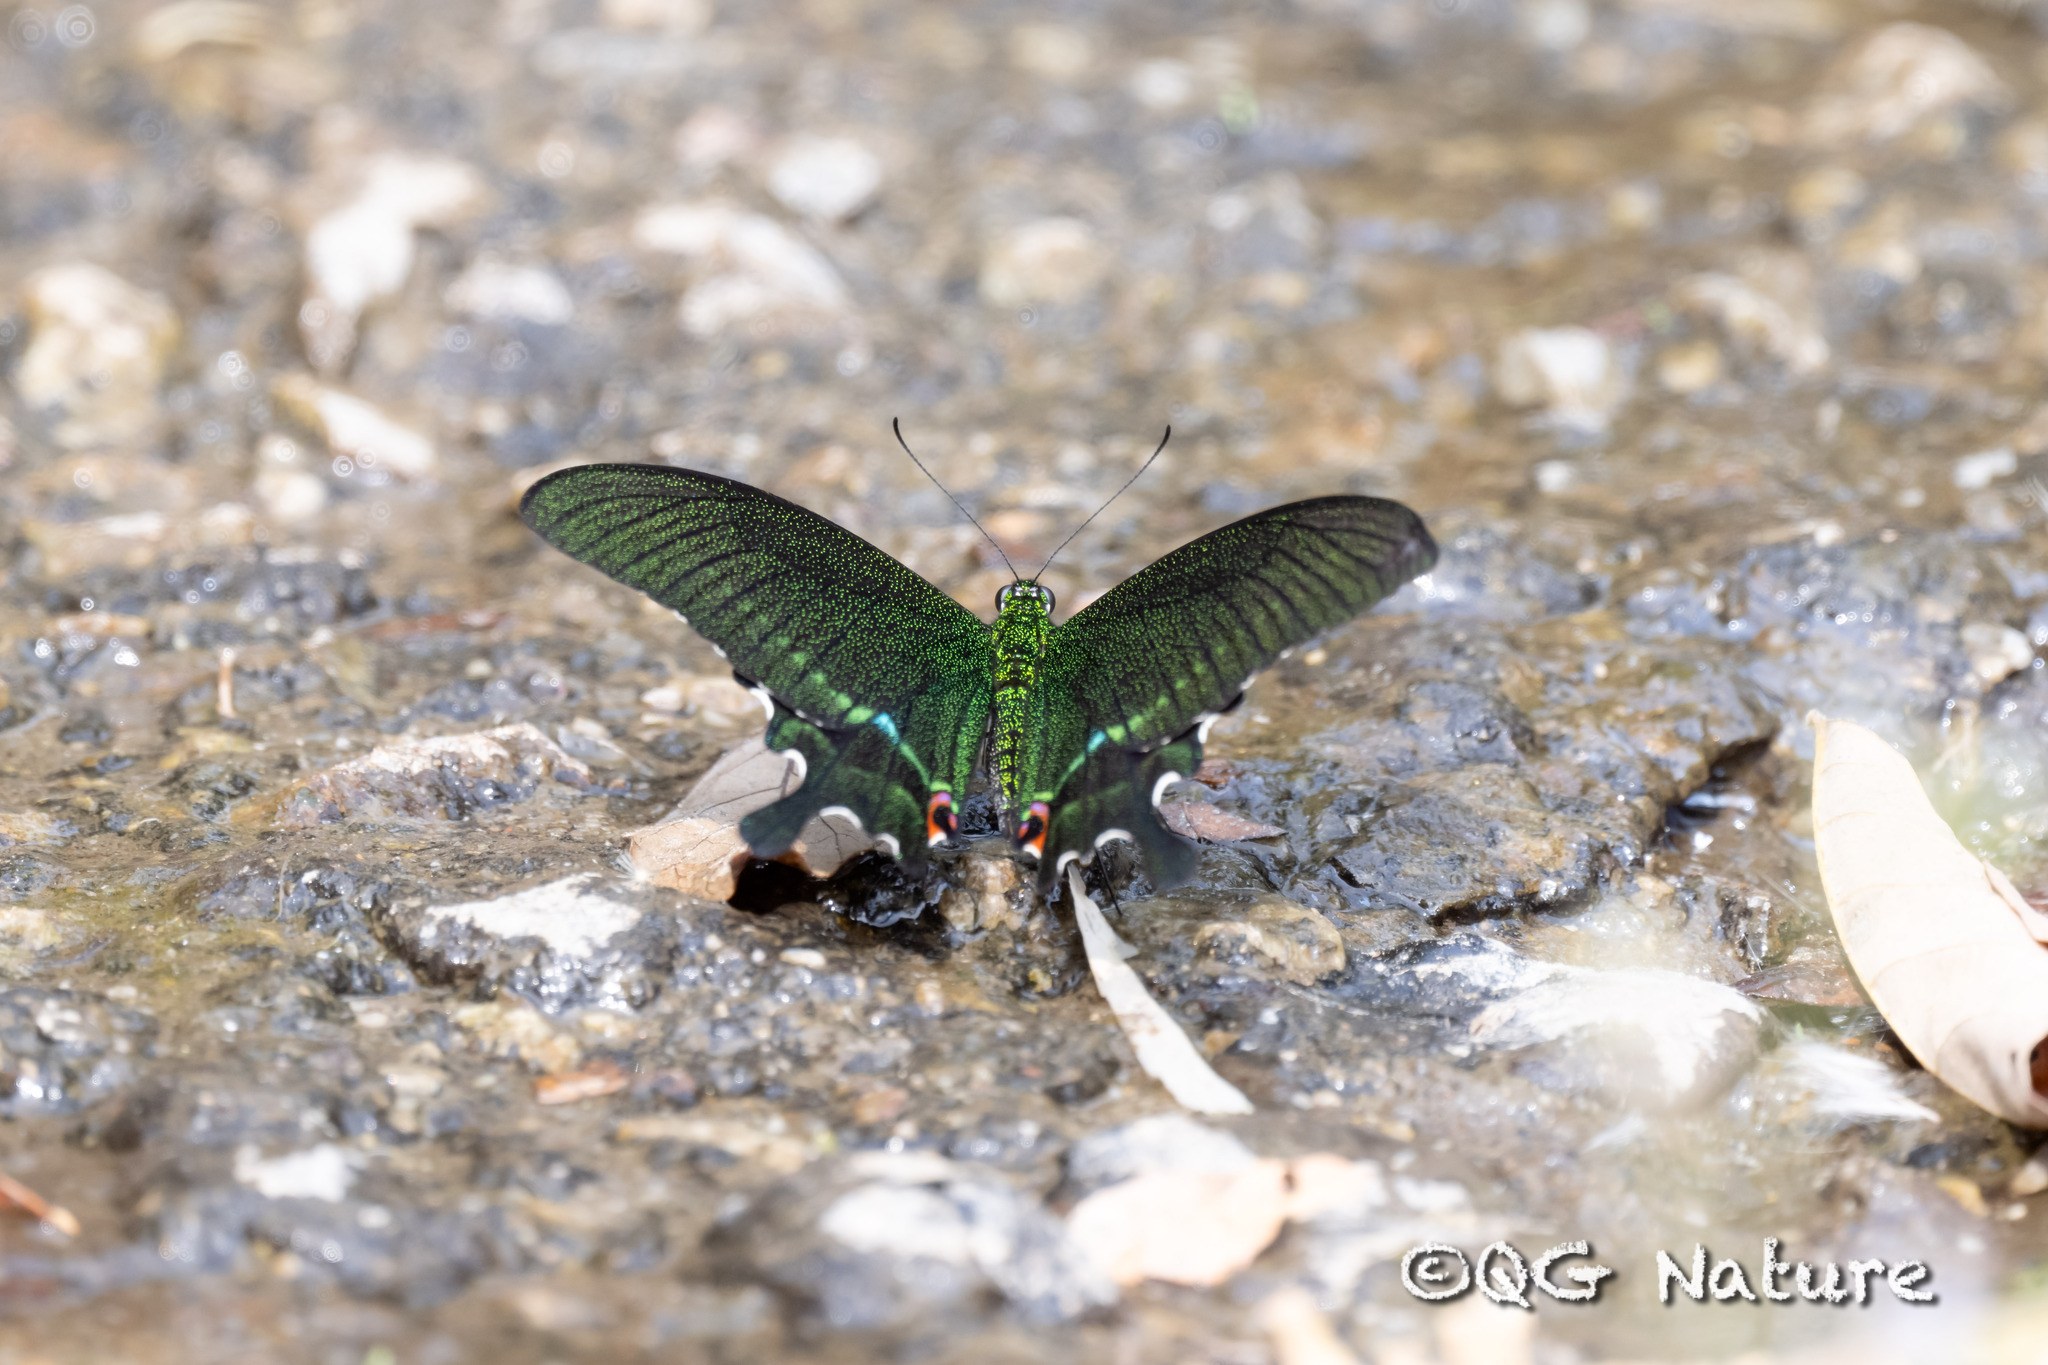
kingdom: Animalia
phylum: Arthropoda
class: Insecta
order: Lepidoptera
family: Papilionidae
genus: Papilio
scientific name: Papilio paris
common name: Paris peacock
